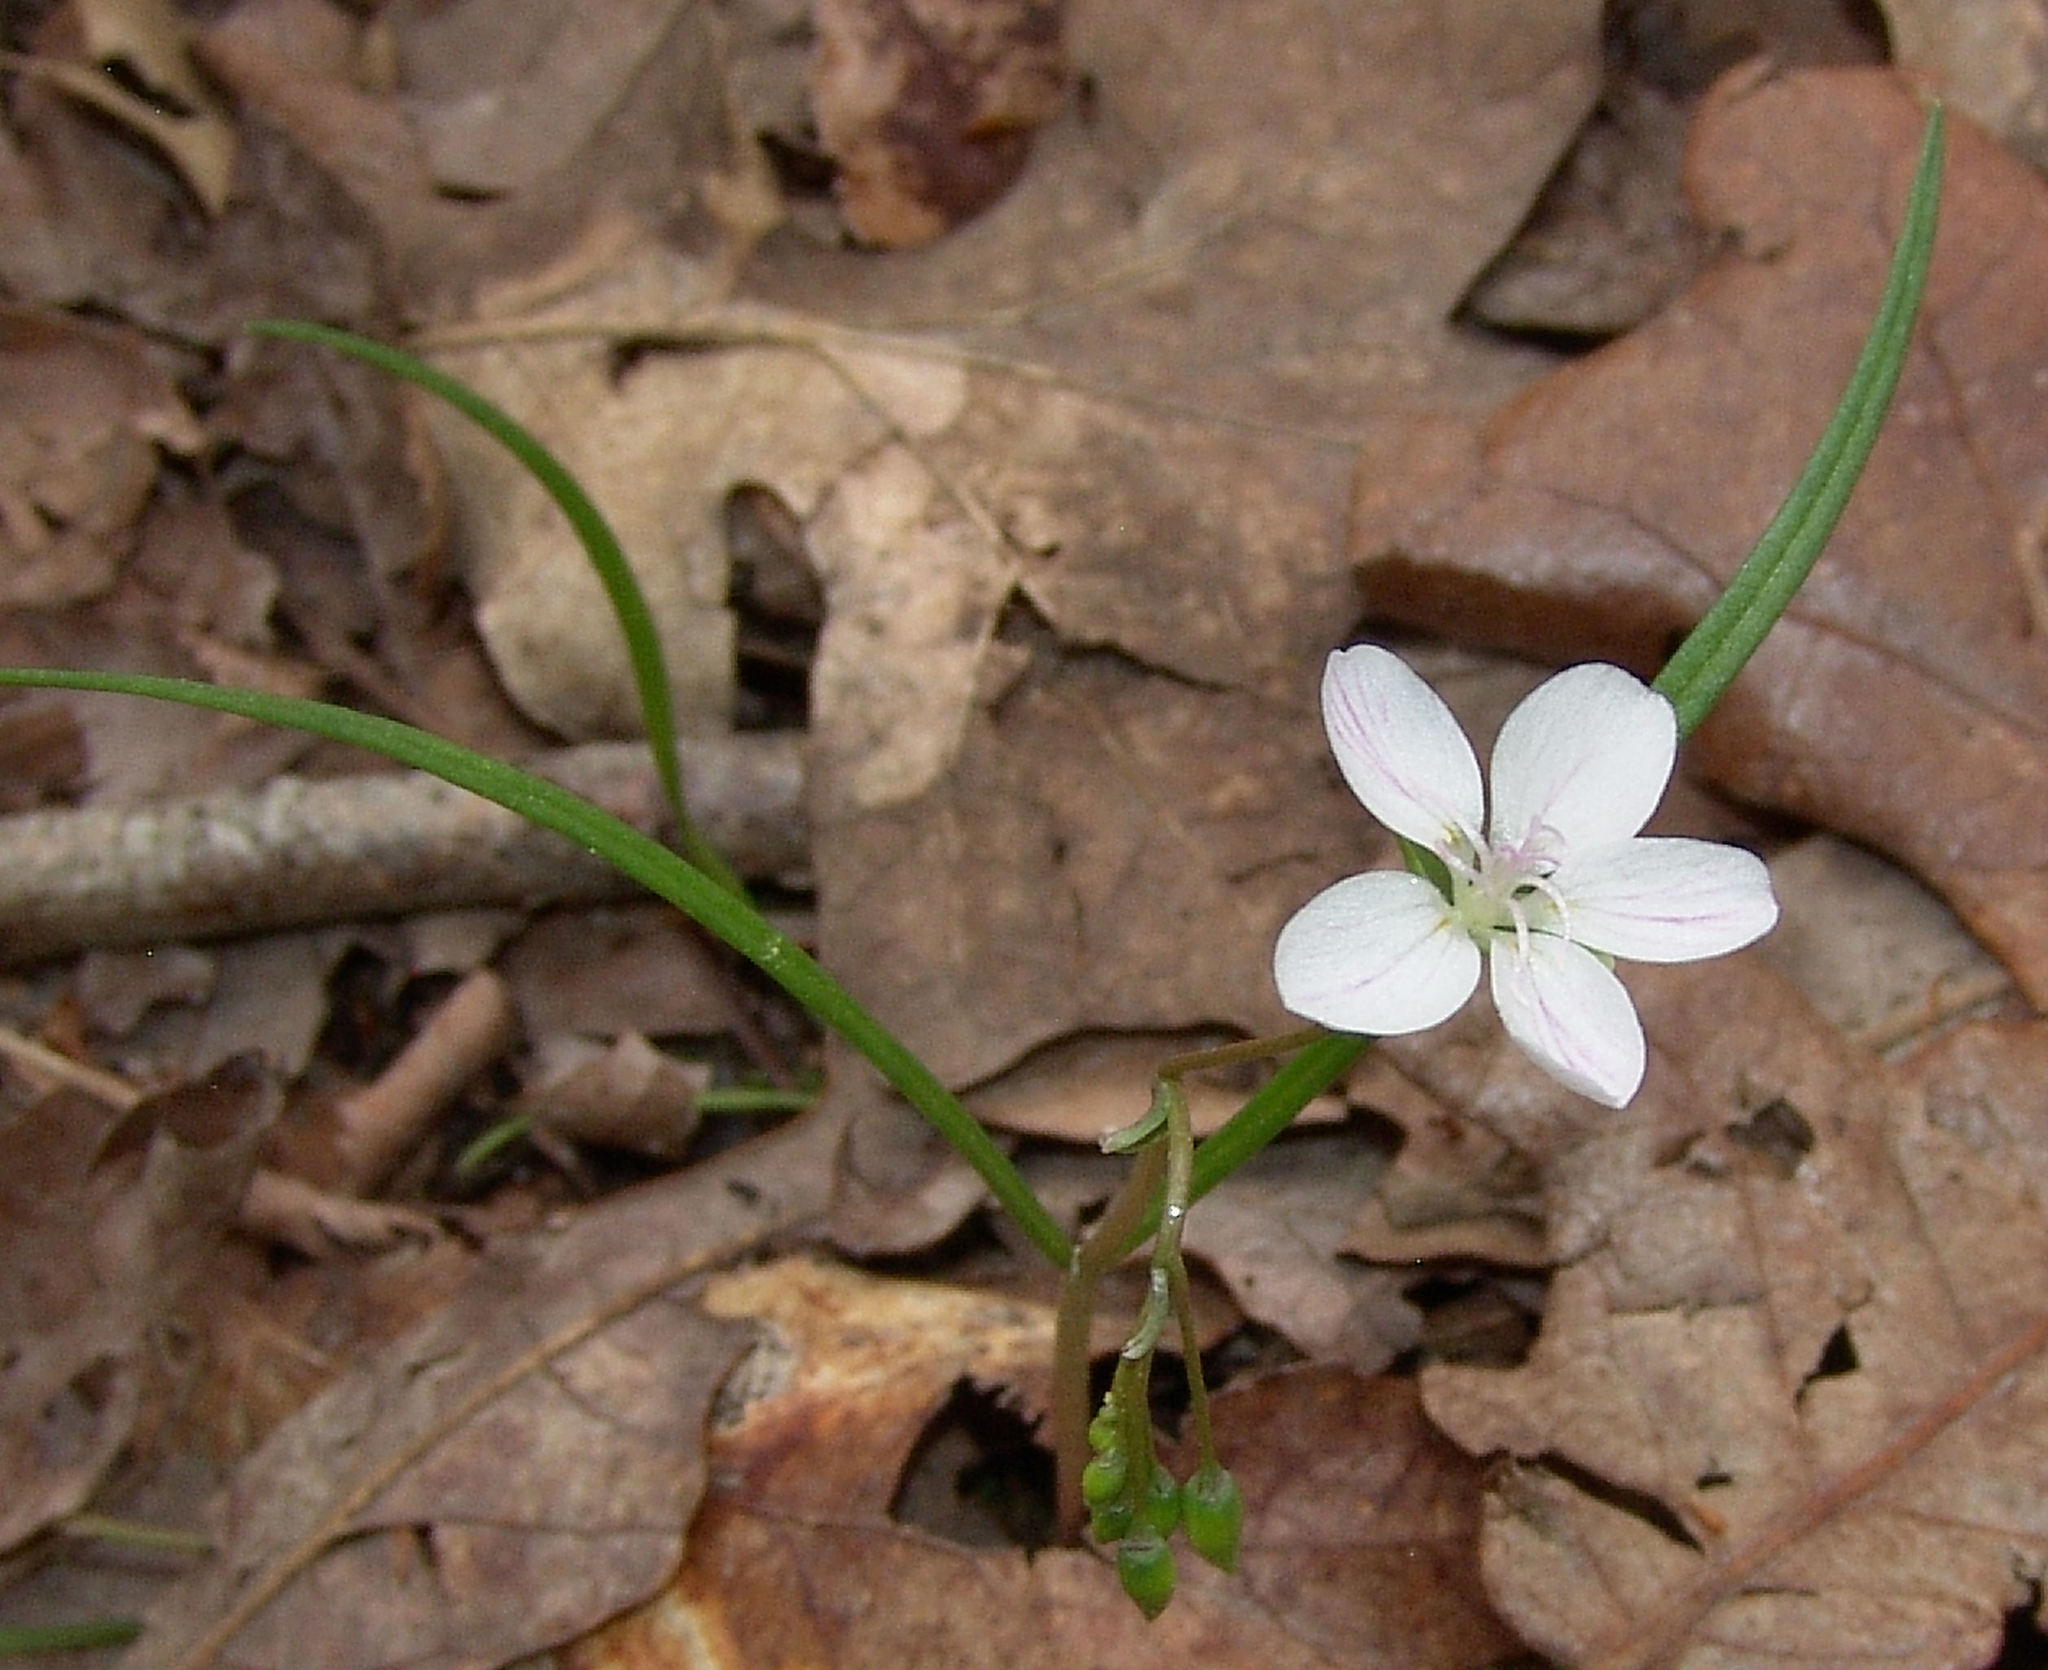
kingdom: Plantae
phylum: Tracheophyta
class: Magnoliopsida
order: Caryophyllales
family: Montiaceae
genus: Claytonia
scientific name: Claytonia virginica
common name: Virginia springbeauty
